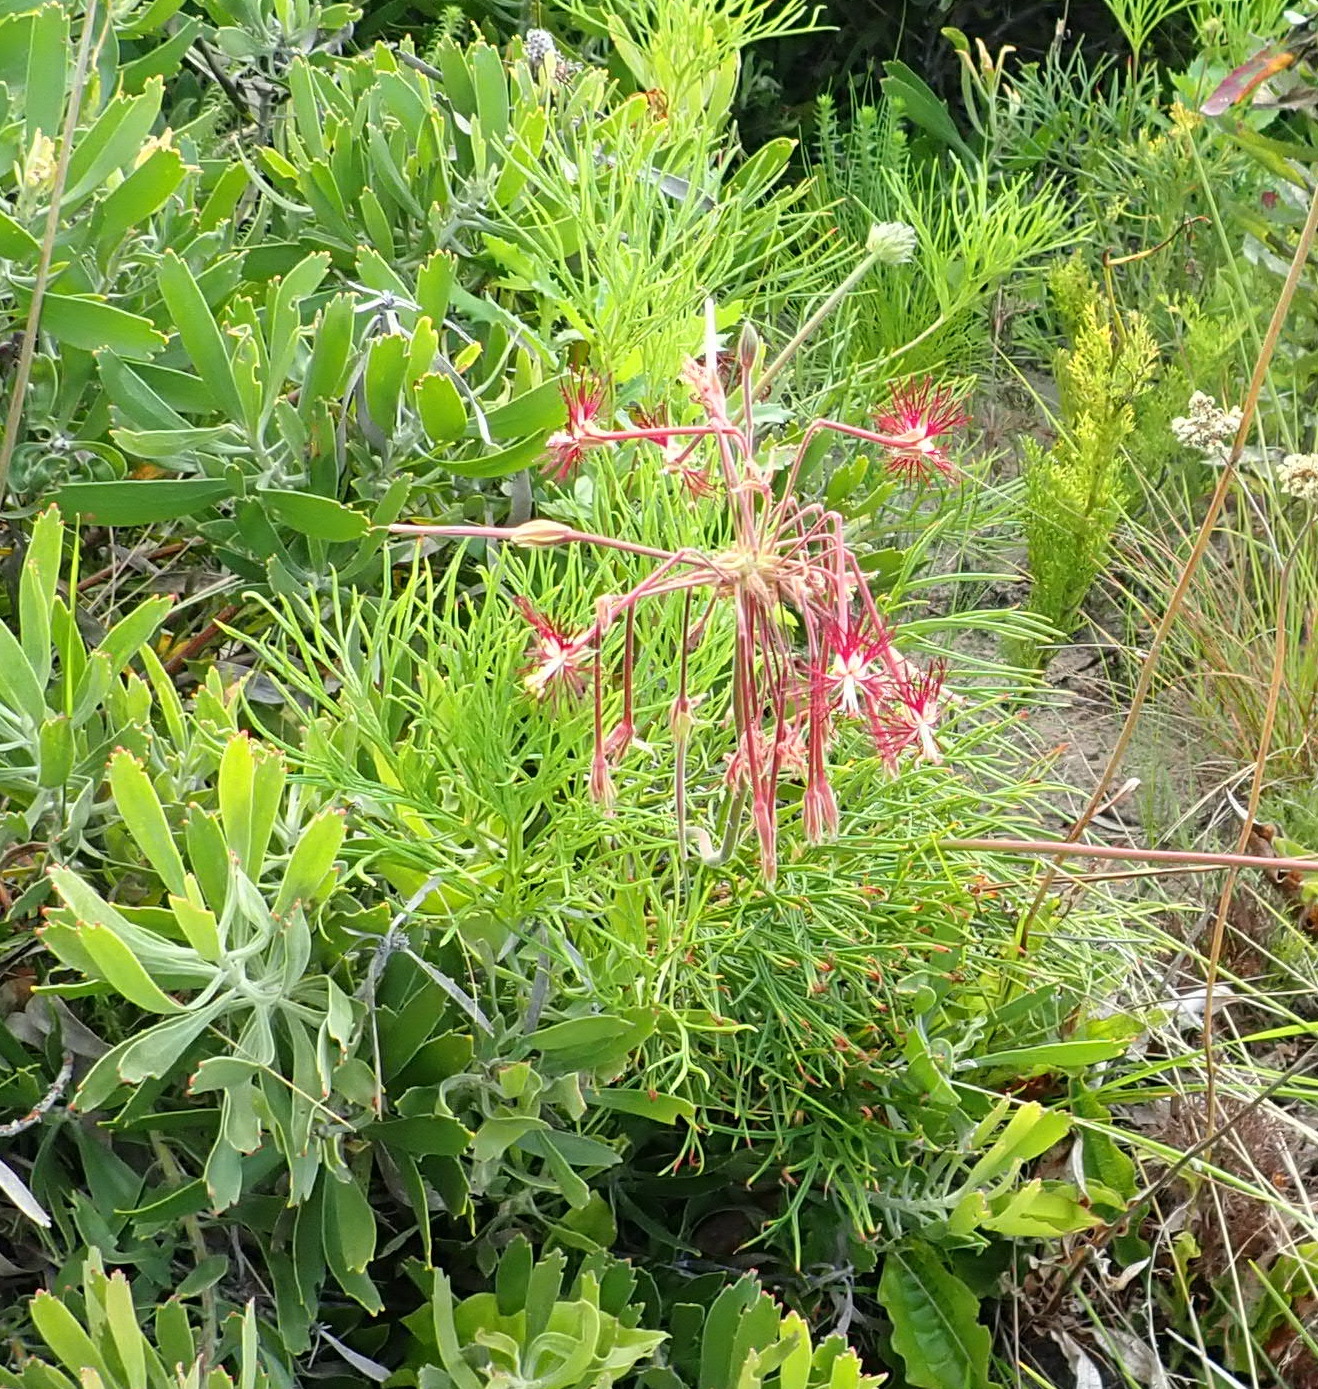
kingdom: Plantae
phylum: Tracheophyta
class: Magnoliopsida
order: Geraniales
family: Geraniaceae
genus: Pelargonium
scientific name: Pelargonium caffrum
